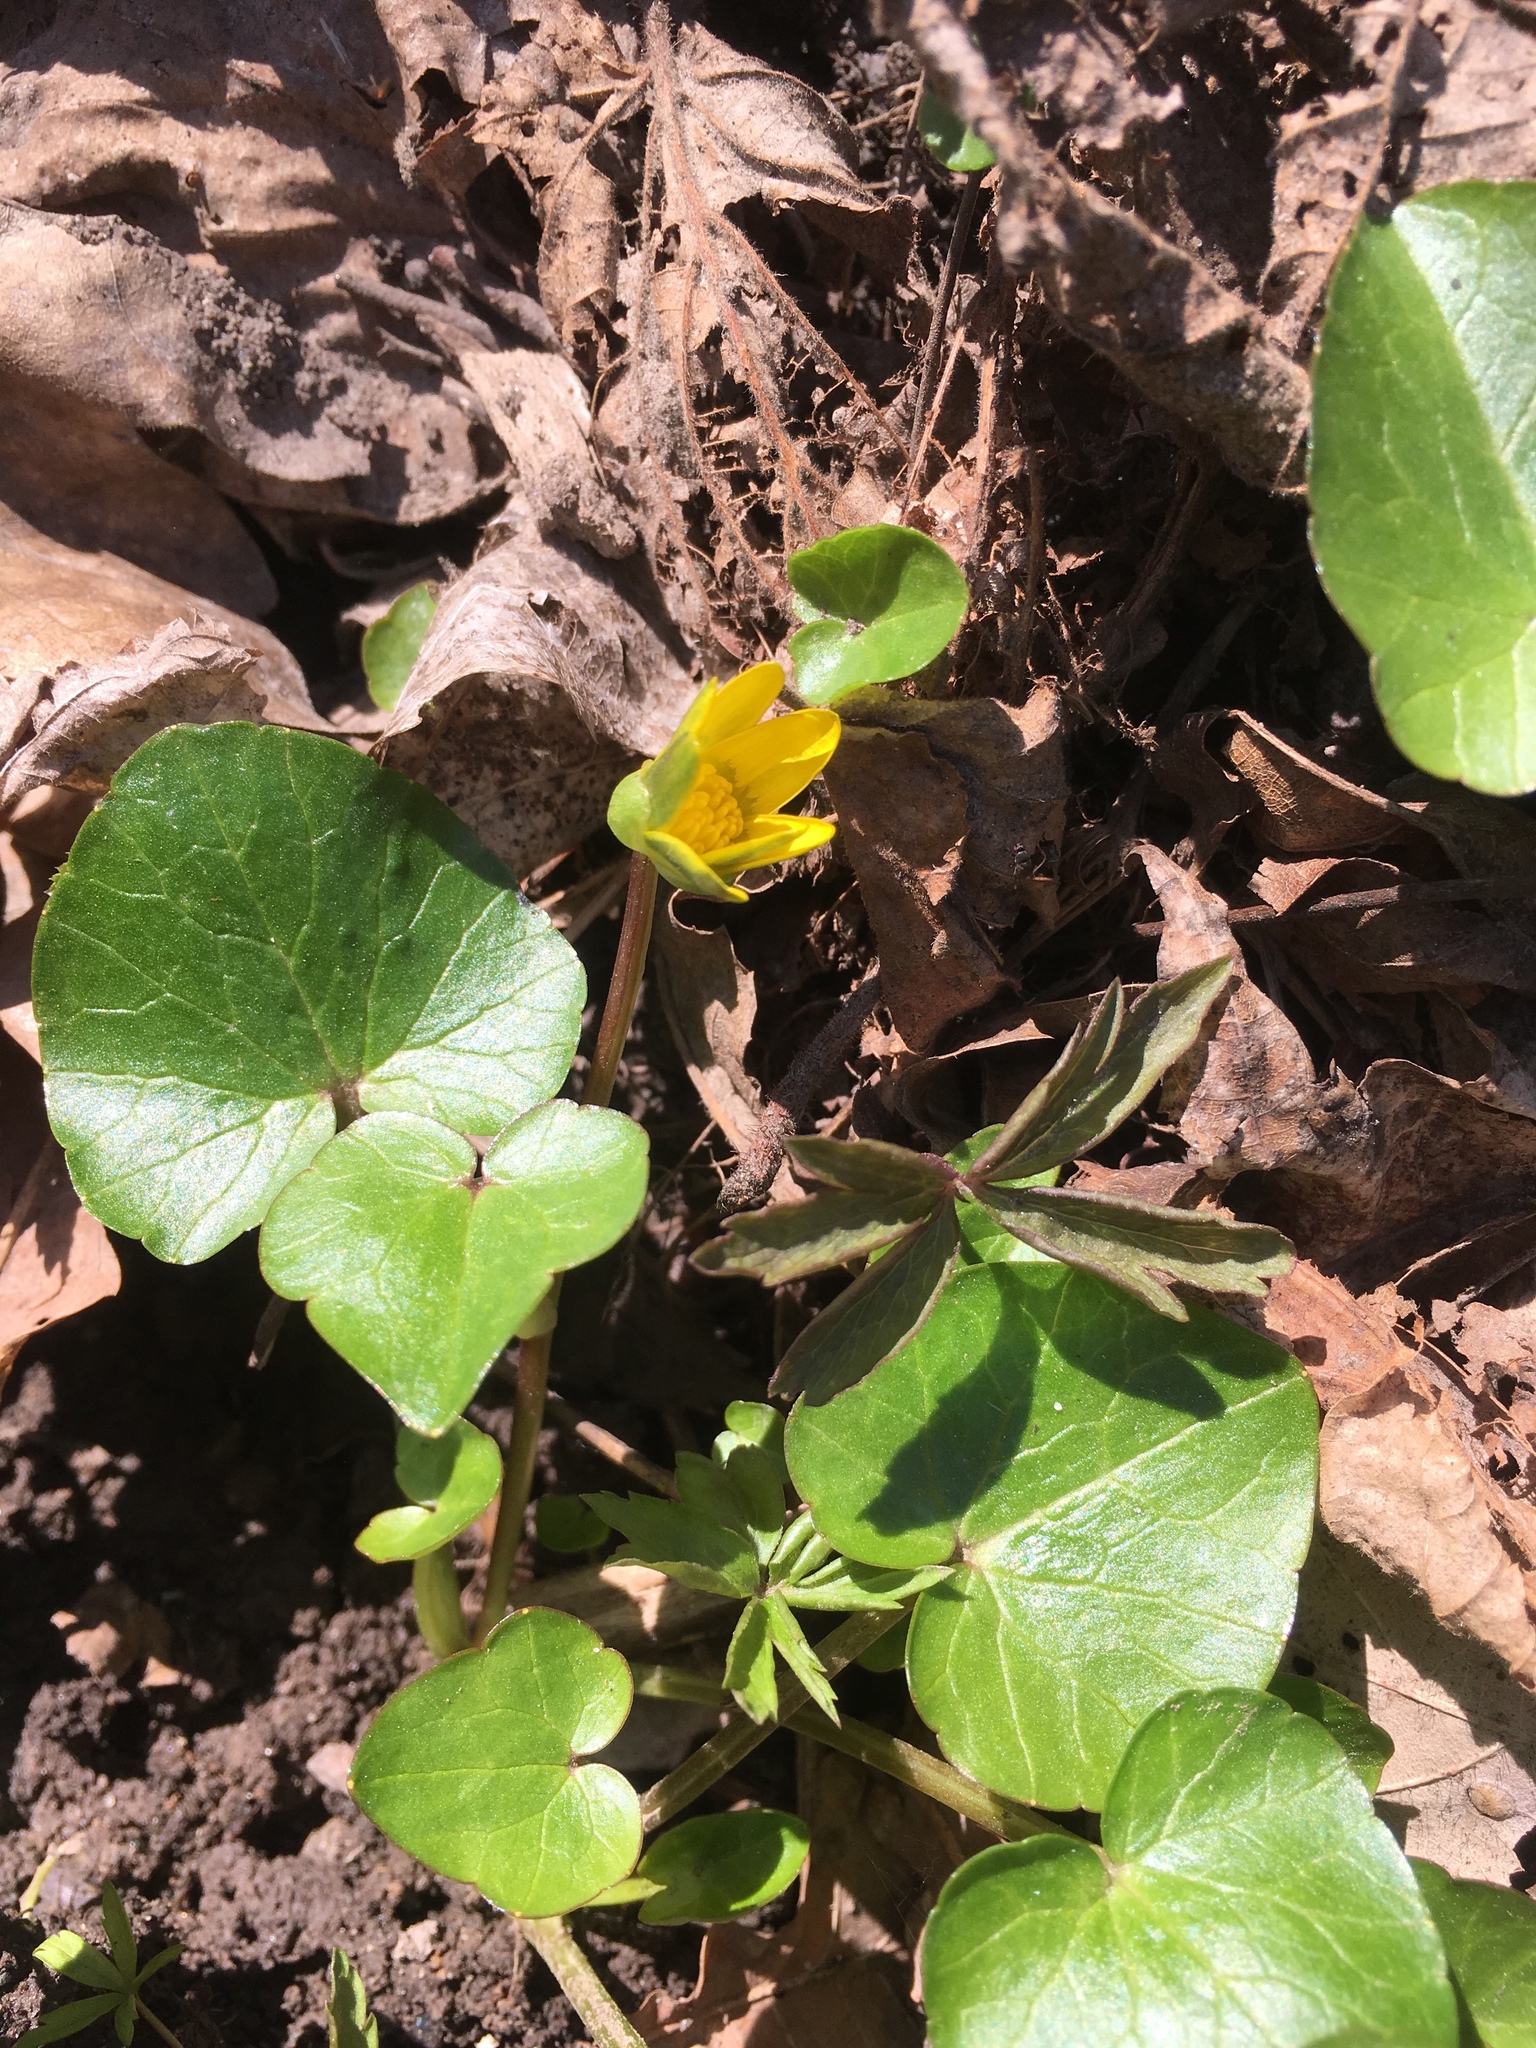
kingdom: Plantae
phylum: Tracheophyta
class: Magnoliopsida
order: Ranunculales
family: Ranunculaceae
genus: Ficaria
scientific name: Ficaria verna
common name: Lesser celandine
